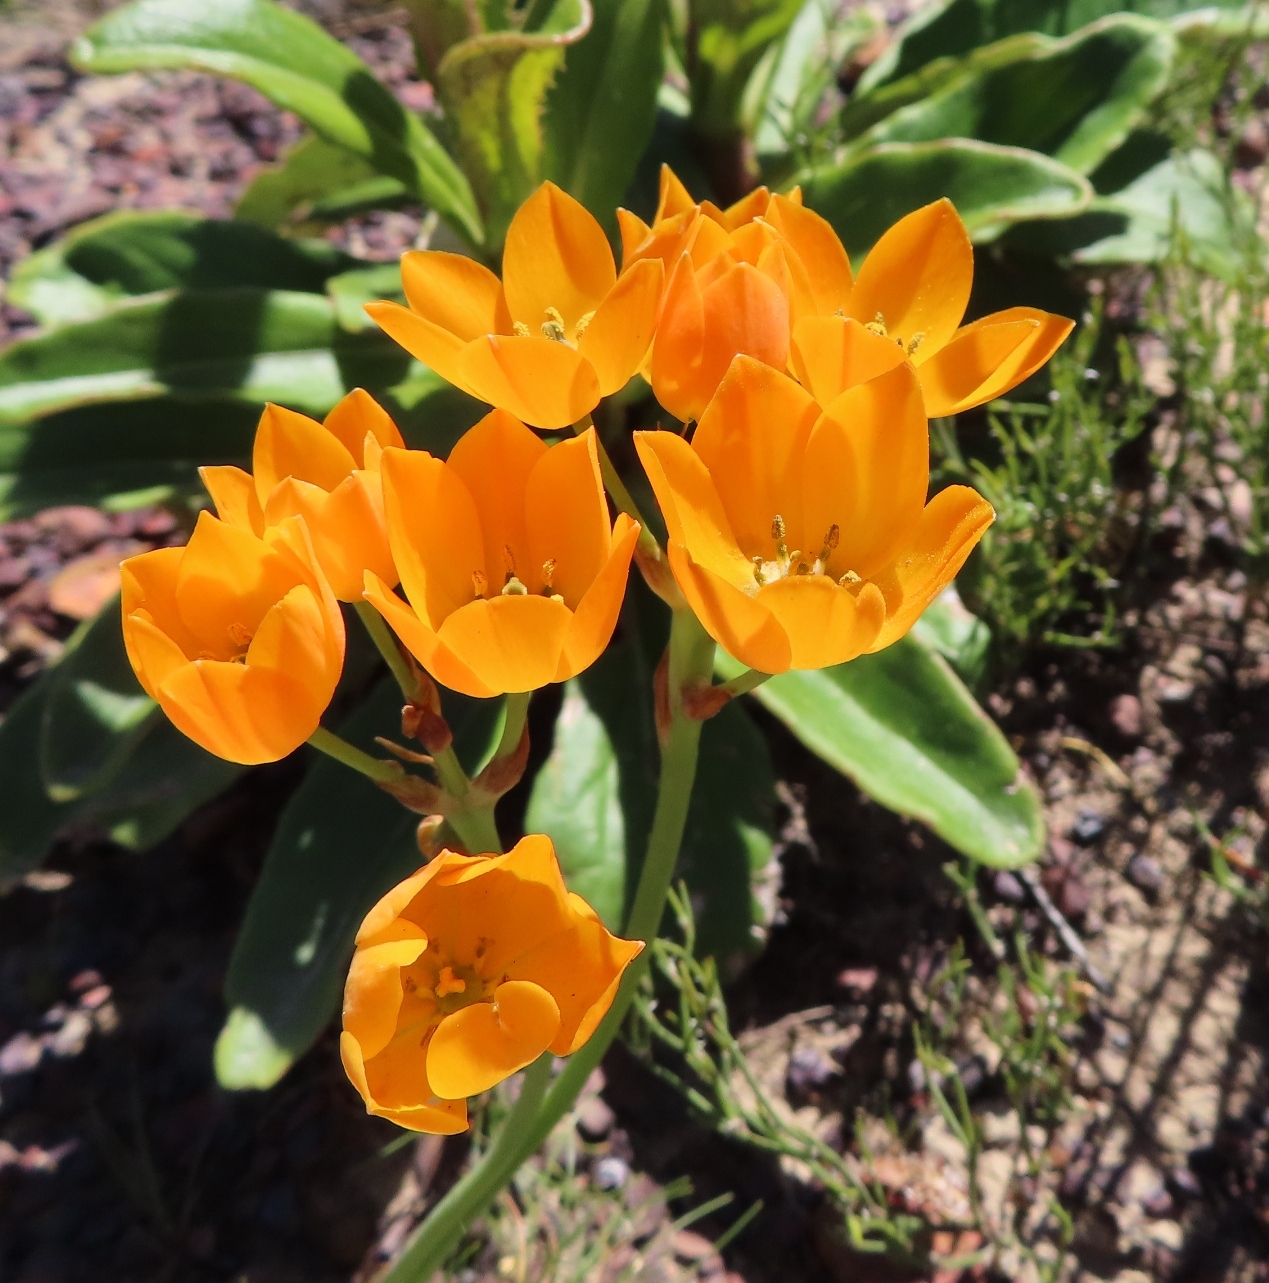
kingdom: Plantae
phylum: Tracheophyta
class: Liliopsida
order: Asparagales
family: Asparagaceae
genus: Ornithogalum
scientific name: Ornithogalum dubium
